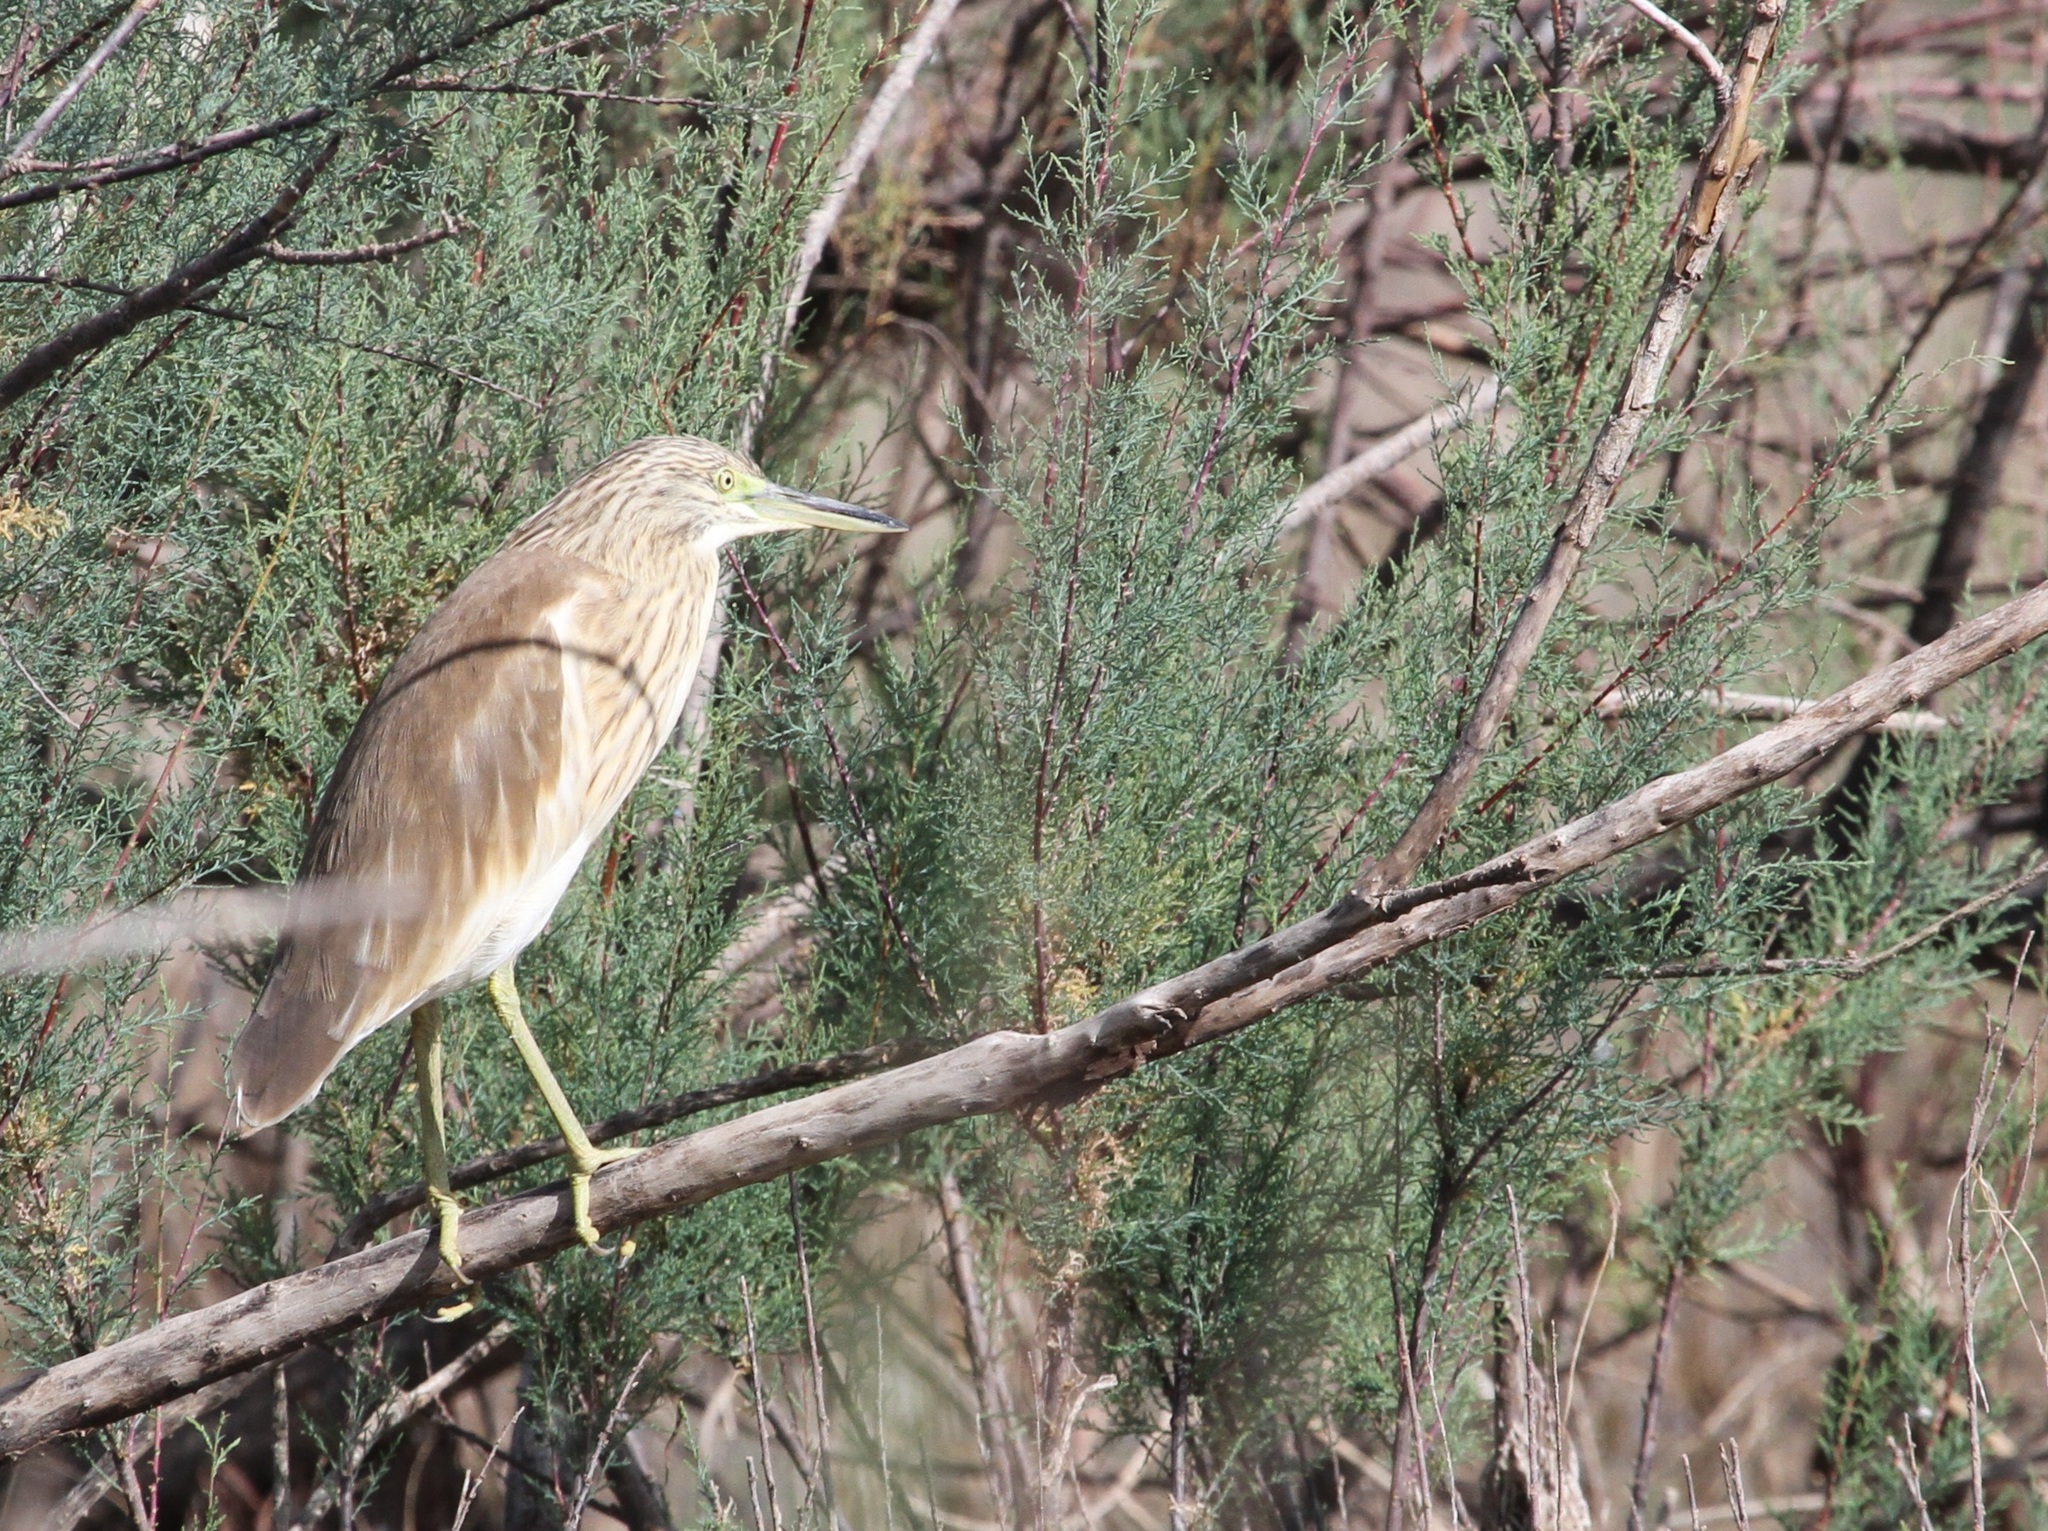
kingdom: Animalia
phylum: Chordata
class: Aves
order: Pelecaniformes
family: Ardeidae
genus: Ardeola
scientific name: Ardeola ralloides
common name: Squacco heron
